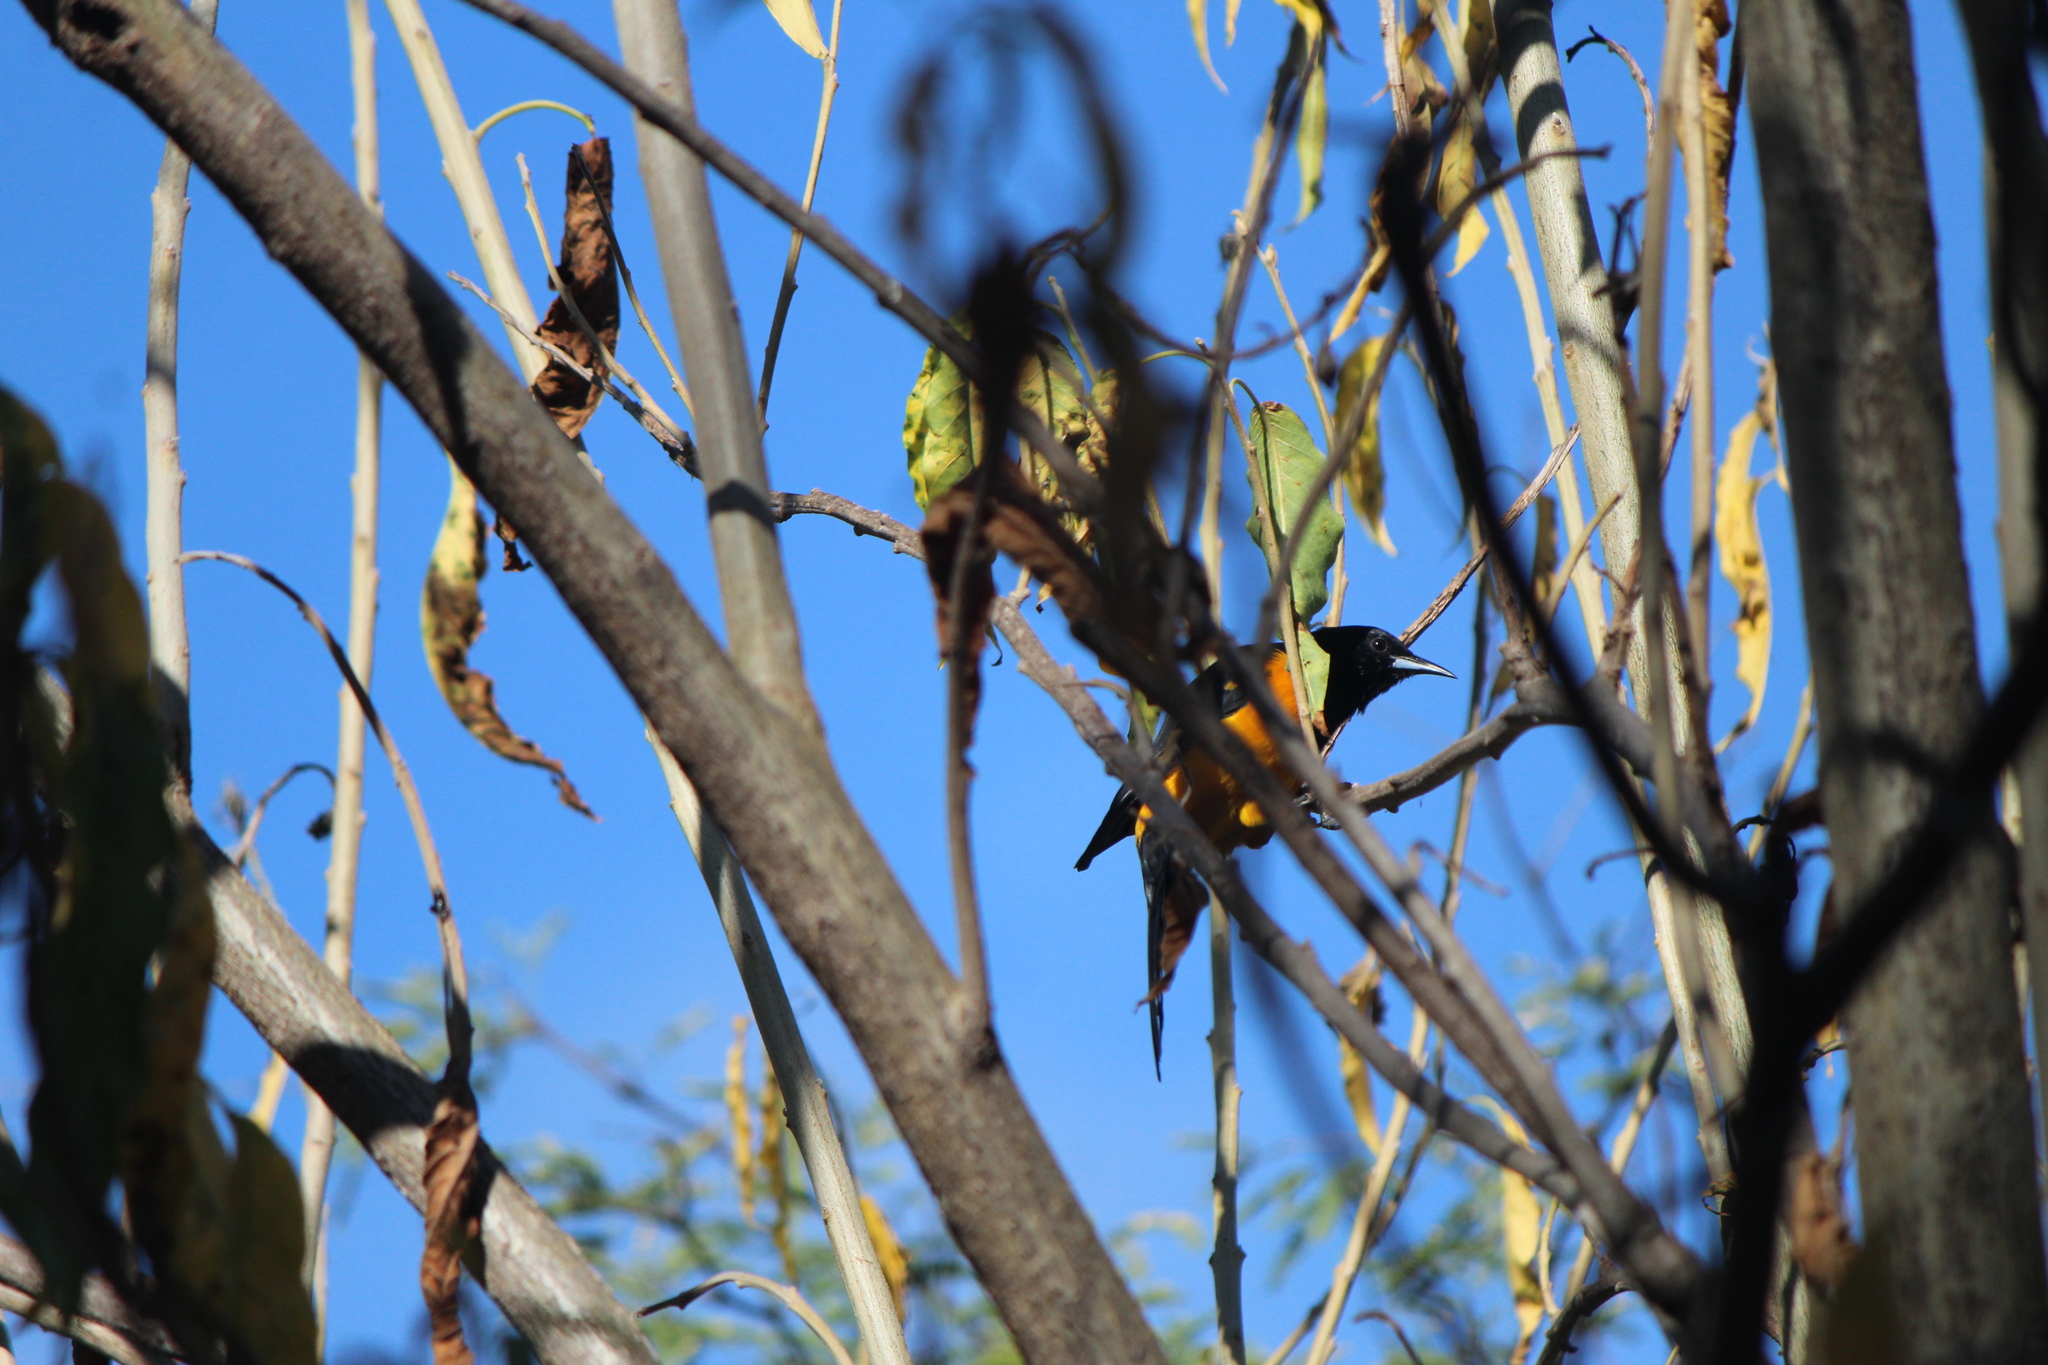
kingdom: Animalia
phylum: Chordata
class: Aves
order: Passeriformes
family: Icteridae
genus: Icterus
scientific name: Icterus wagleri
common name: Black-vented oriole
